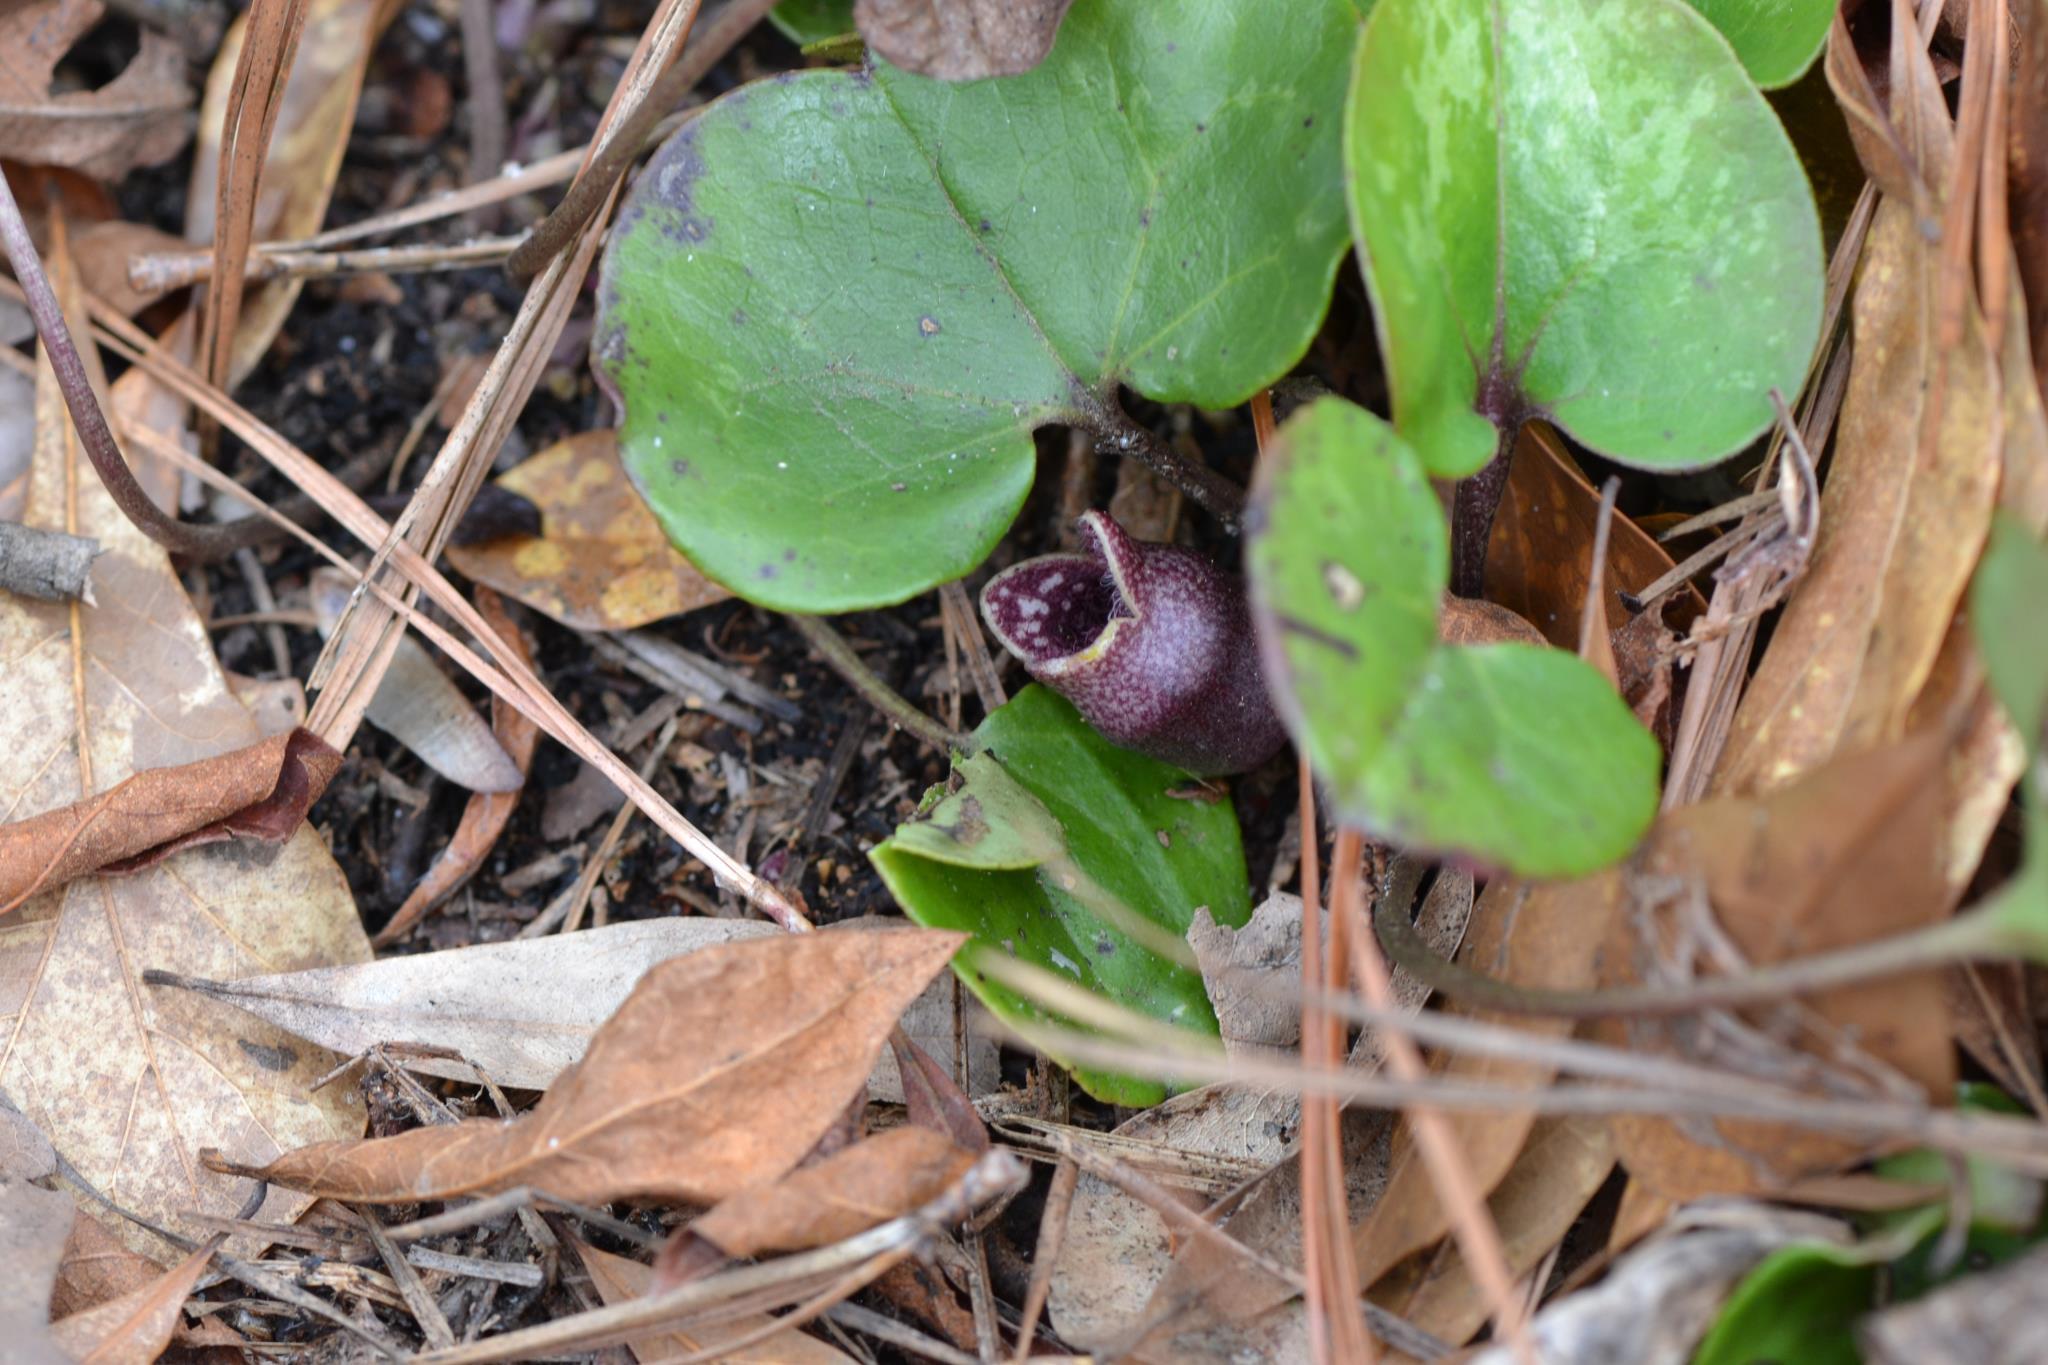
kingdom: Plantae
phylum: Tracheophyta
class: Magnoliopsida
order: Piperales
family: Aristolochiaceae
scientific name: Aristolochiaceae
